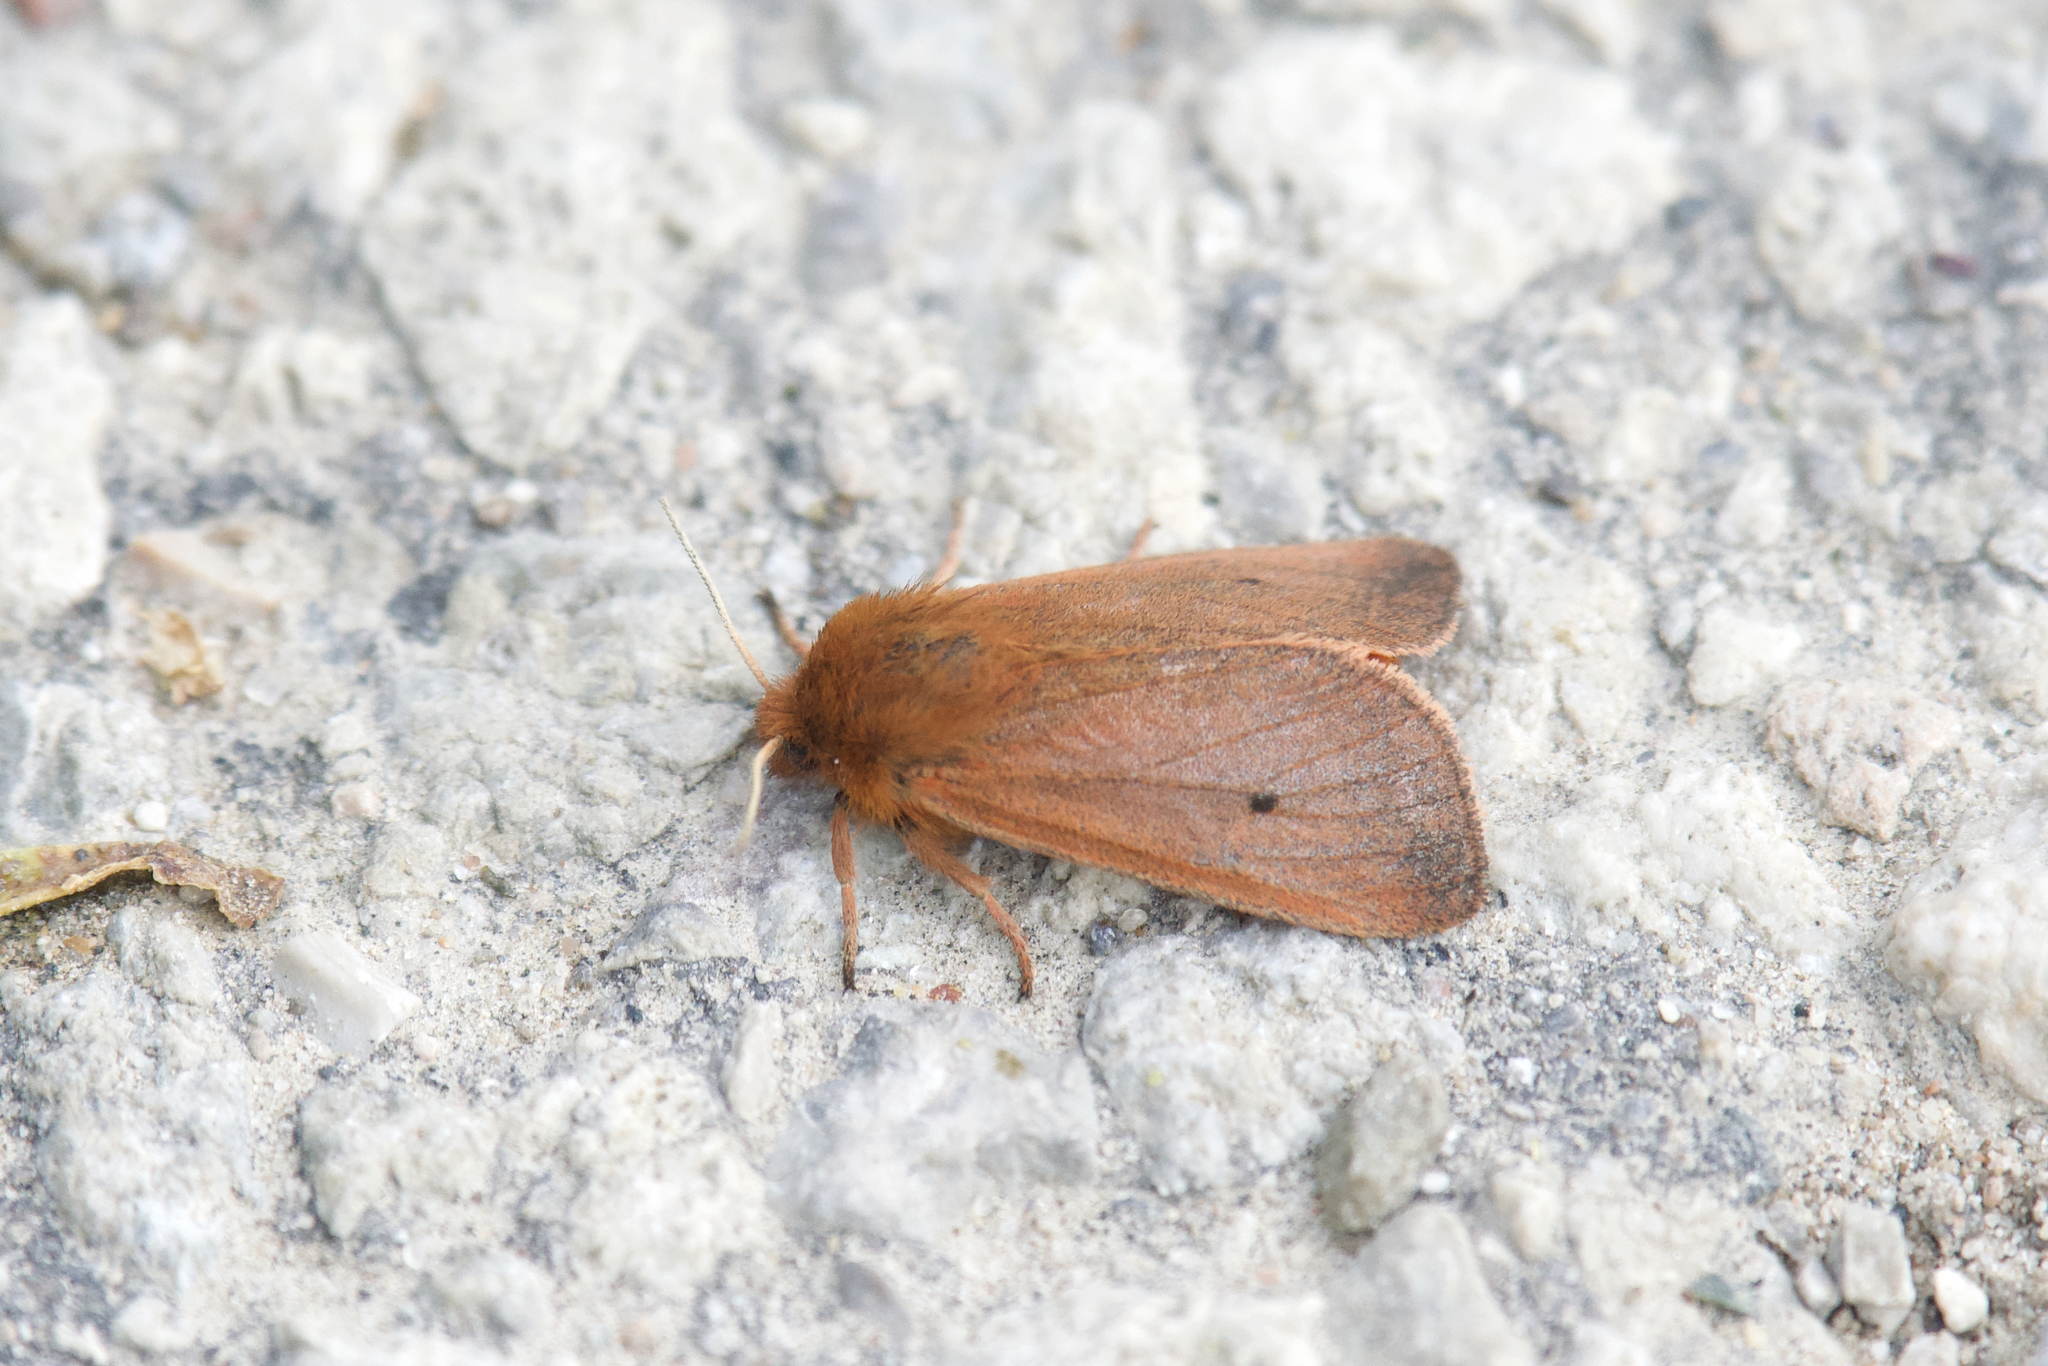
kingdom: Animalia
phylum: Arthropoda
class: Insecta
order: Lepidoptera
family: Erebidae
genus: Phragmatobia
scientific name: Phragmatobia fuliginosa
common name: Ruby tiger
